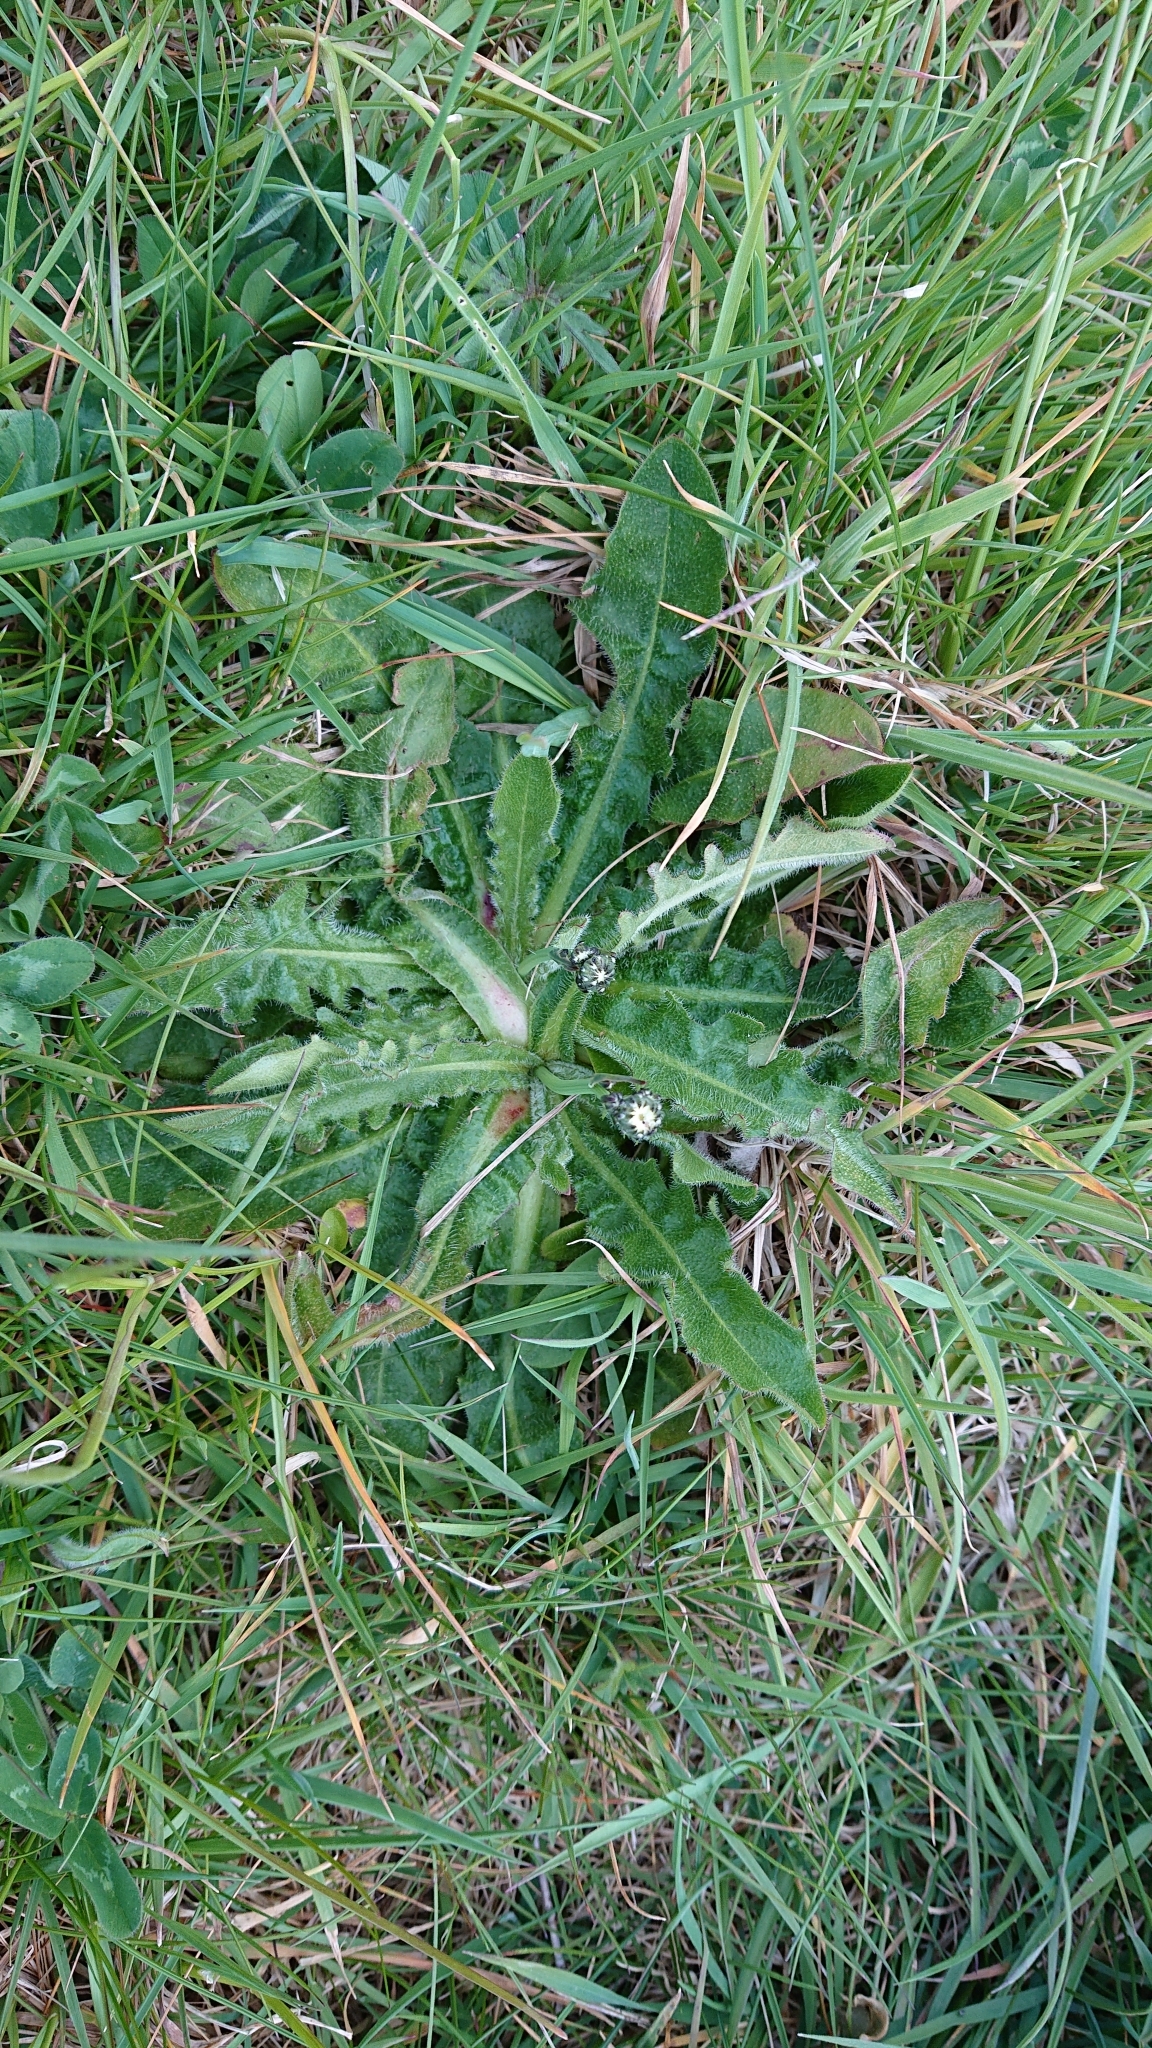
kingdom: Plantae
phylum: Tracheophyta
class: Magnoliopsida
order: Asterales
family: Asteraceae
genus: Hypochaeris
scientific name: Hypochaeris radicata
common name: Flatweed
